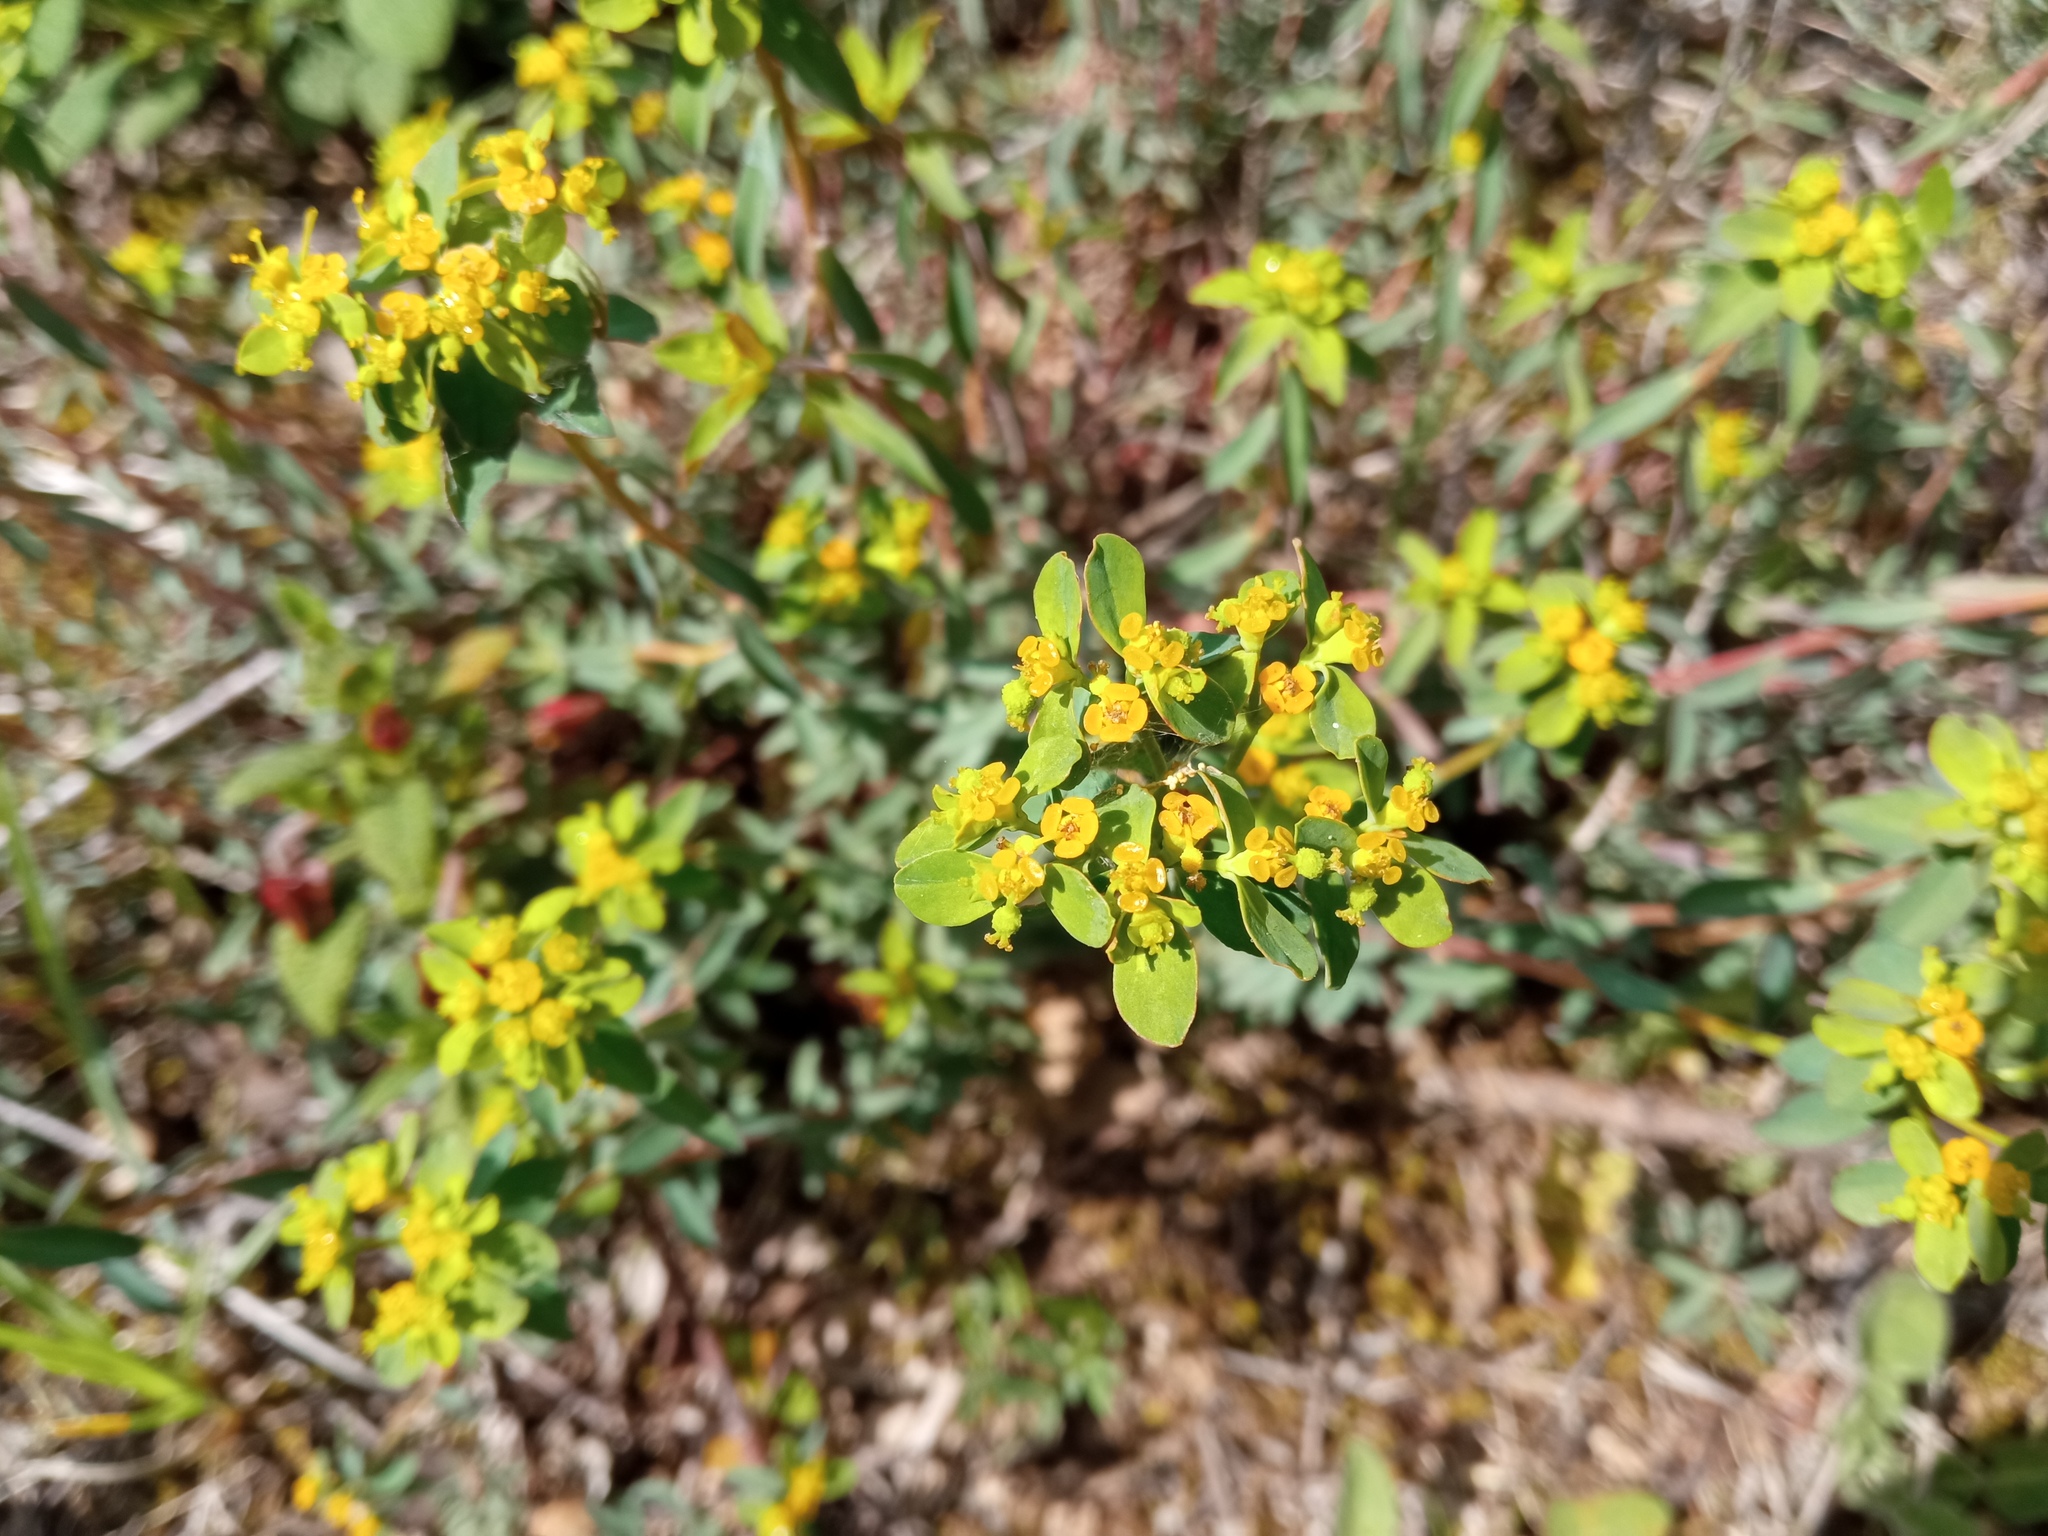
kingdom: Plantae
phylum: Tracheophyta
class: Magnoliopsida
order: Malpighiales
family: Euphorbiaceae
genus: Euphorbia
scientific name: Euphorbia flavicoma
